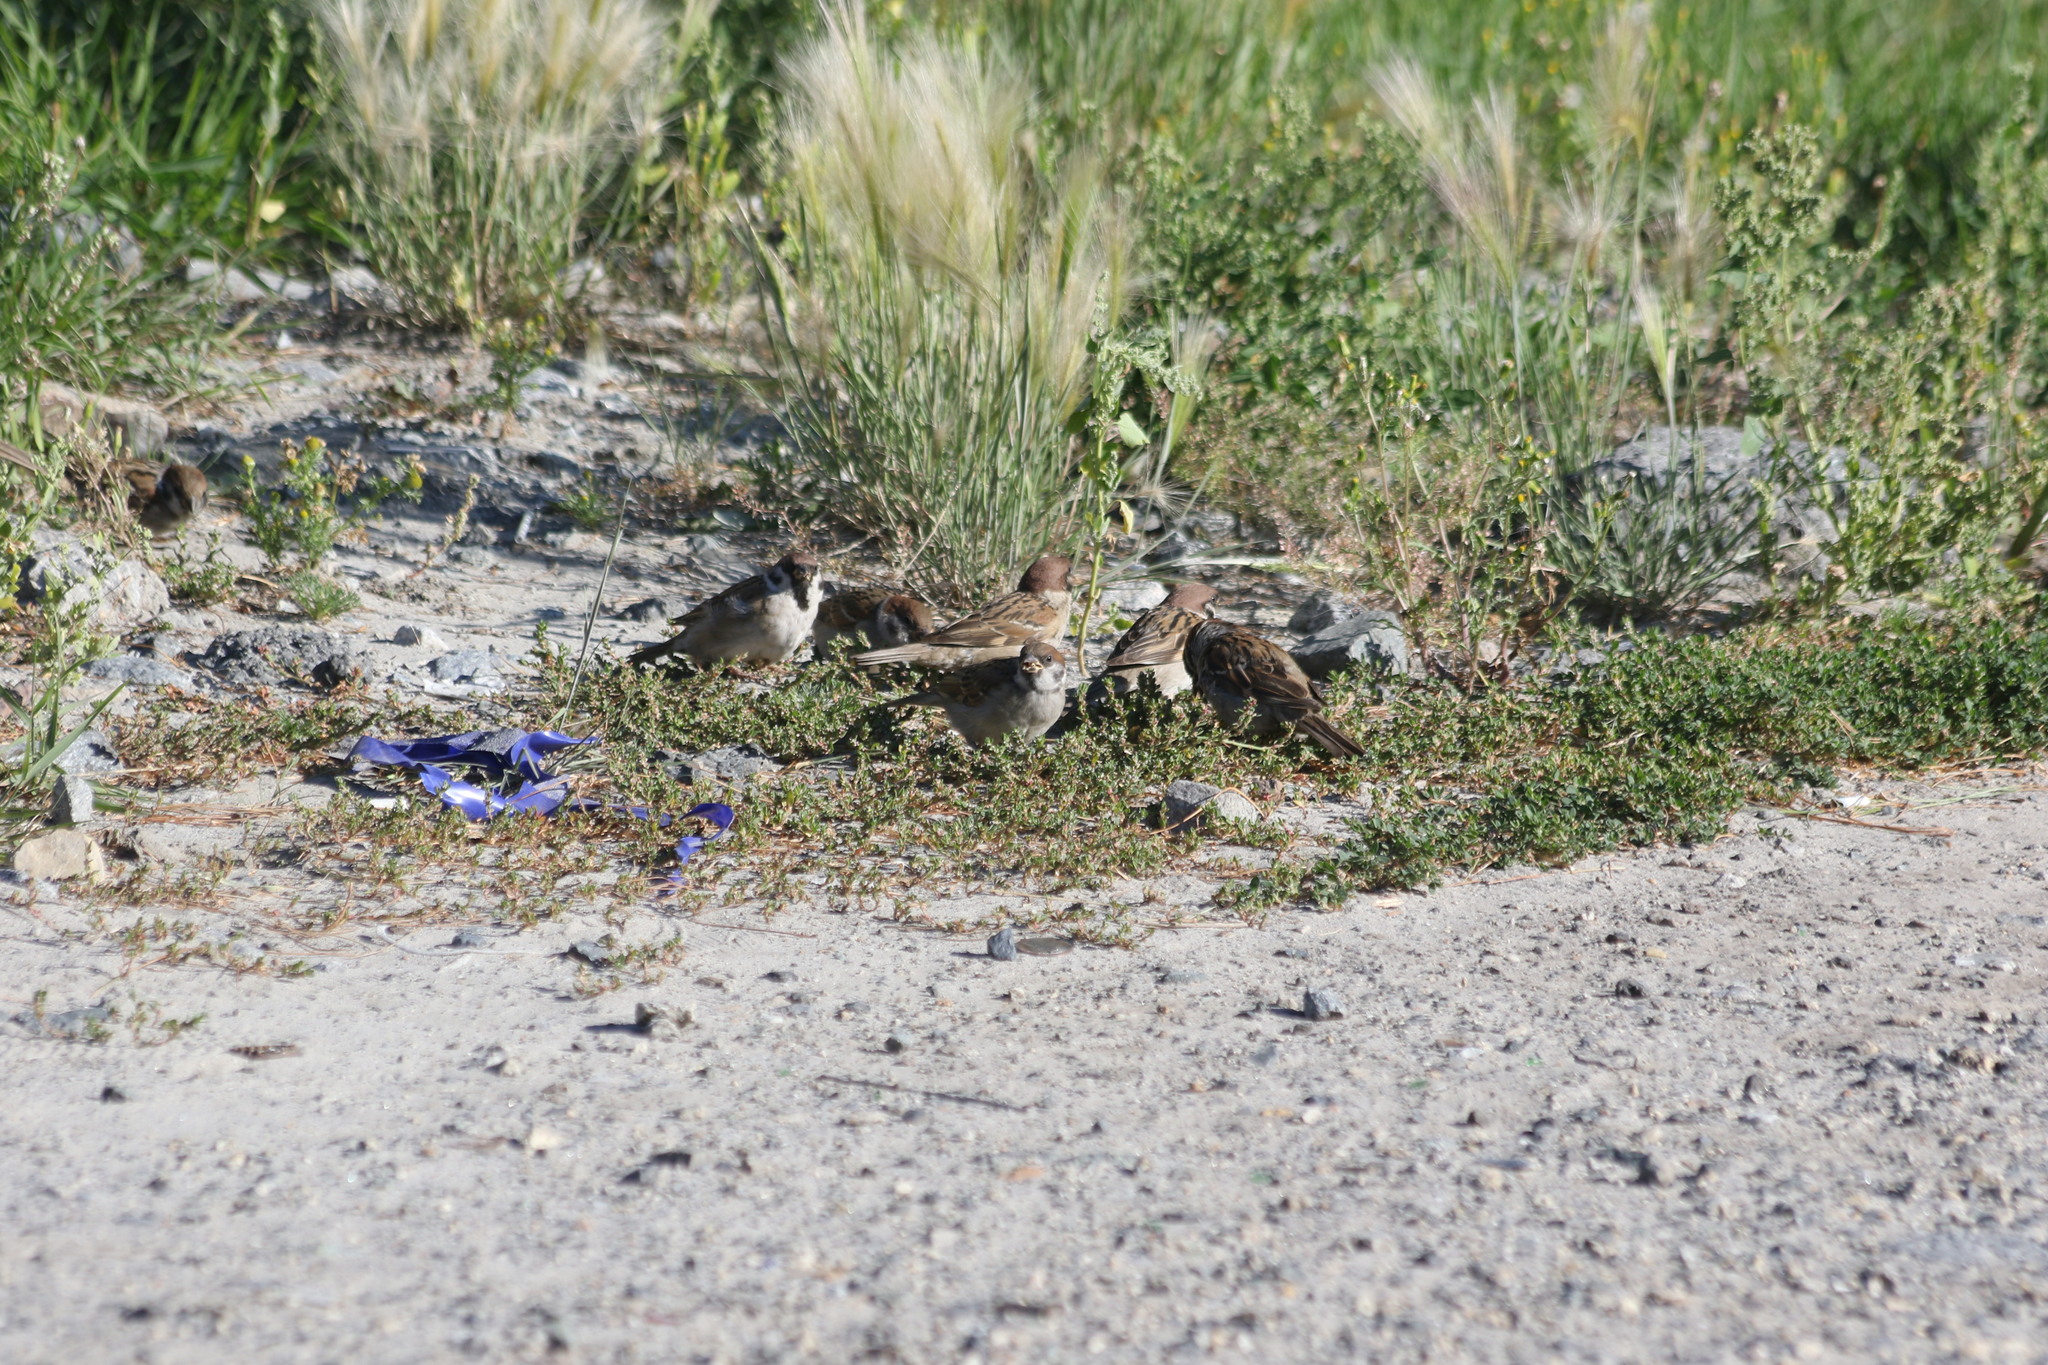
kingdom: Animalia
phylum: Chordata
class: Aves
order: Passeriformes
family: Passeridae
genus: Passer
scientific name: Passer montanus
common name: Eurasian tree sparrow
